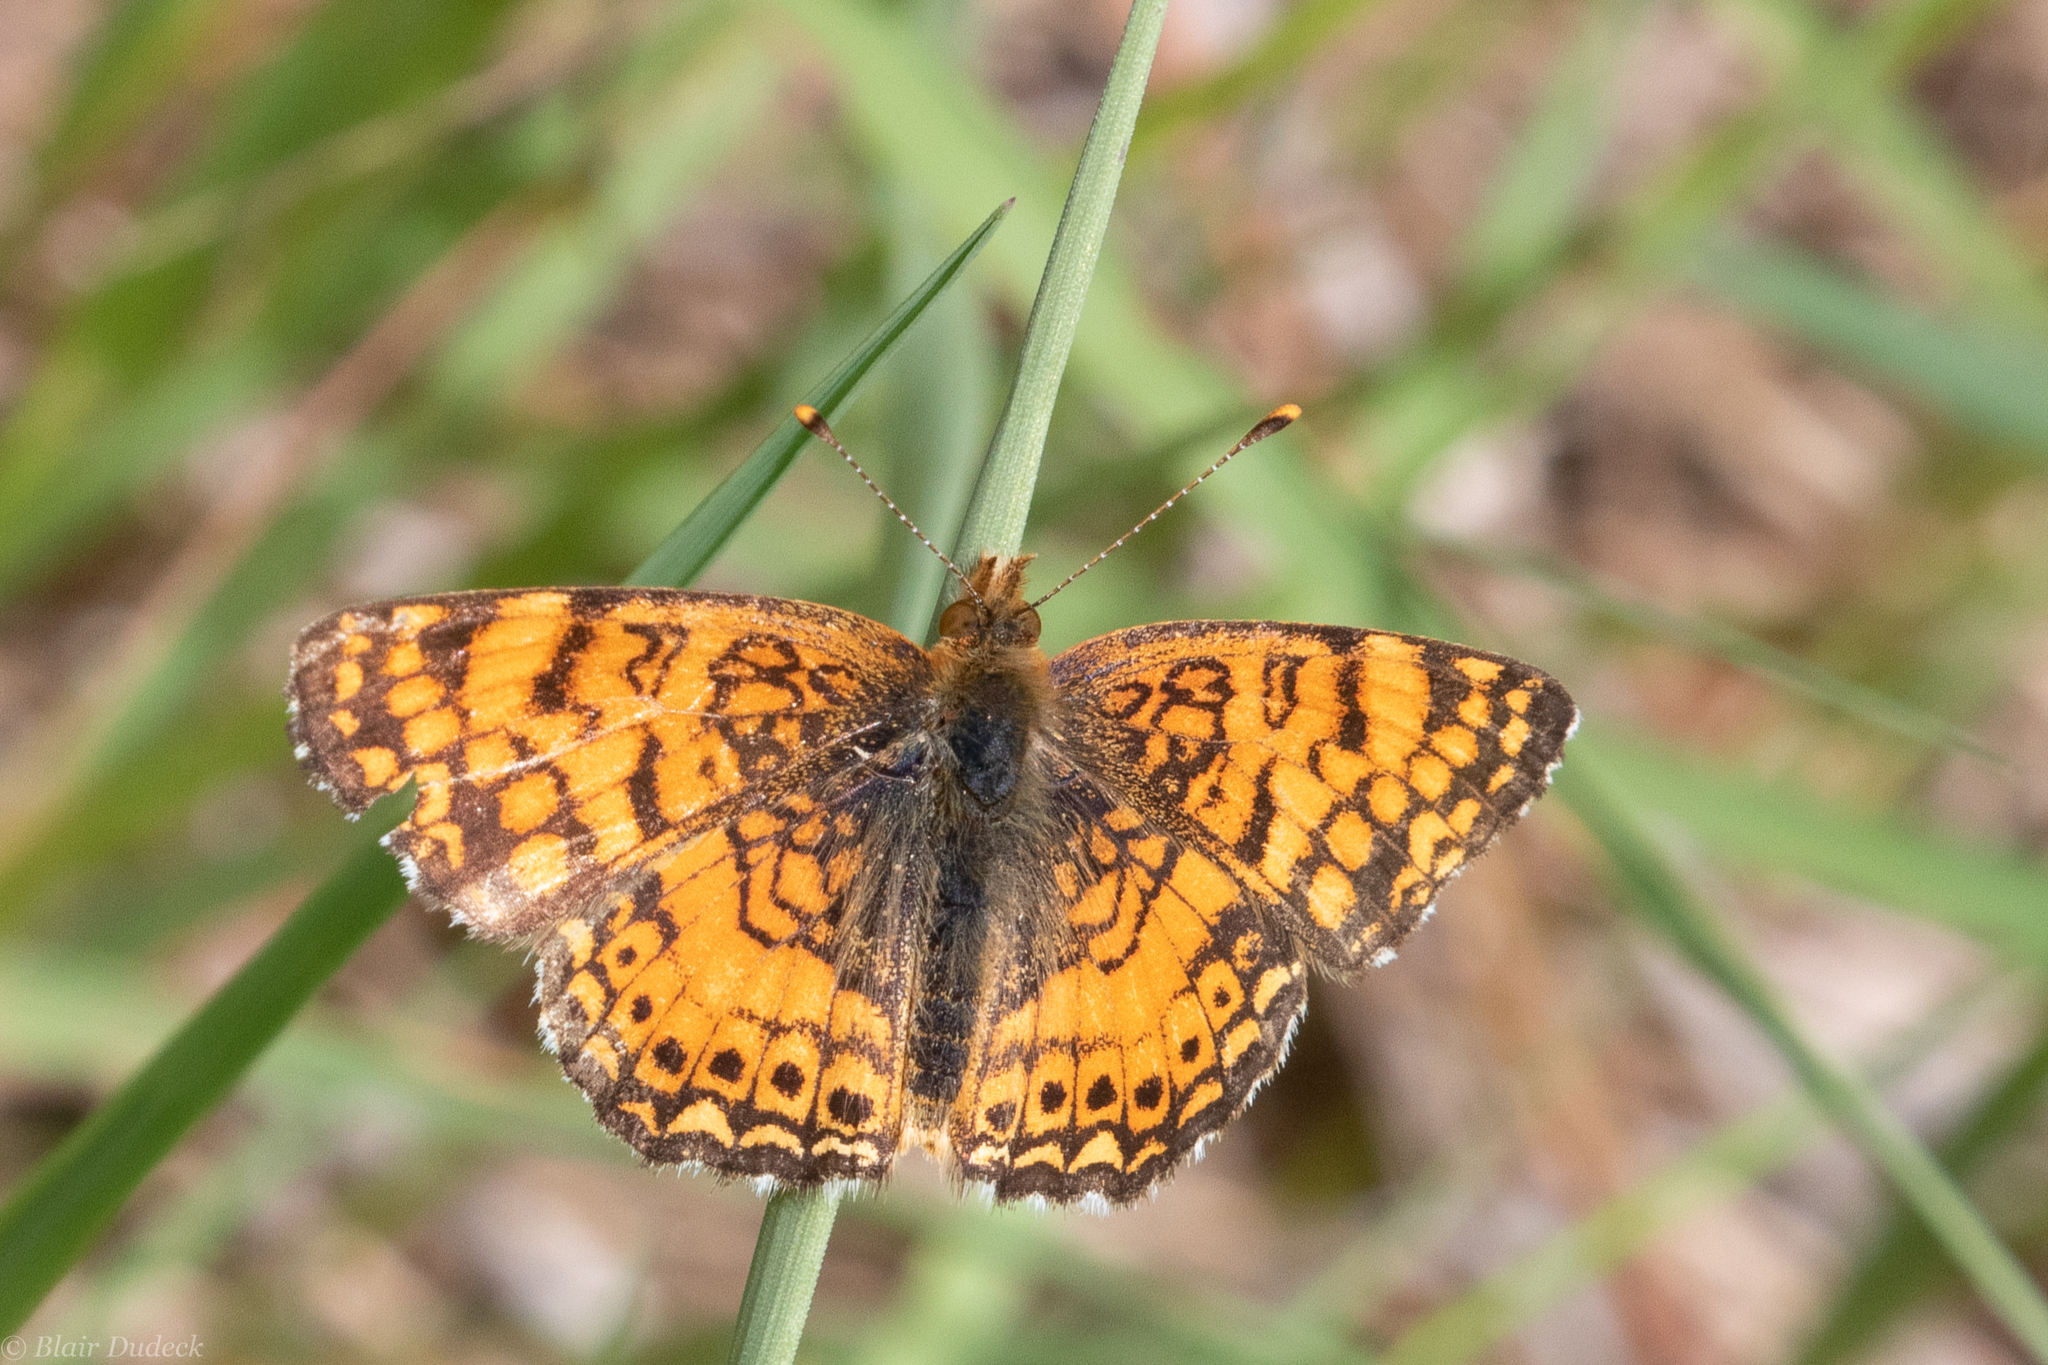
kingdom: Animalia
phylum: Arthropoda
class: Insecta
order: Lepidoptera
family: Nymphalidae
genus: Eresia
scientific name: Eresia aveyrona
